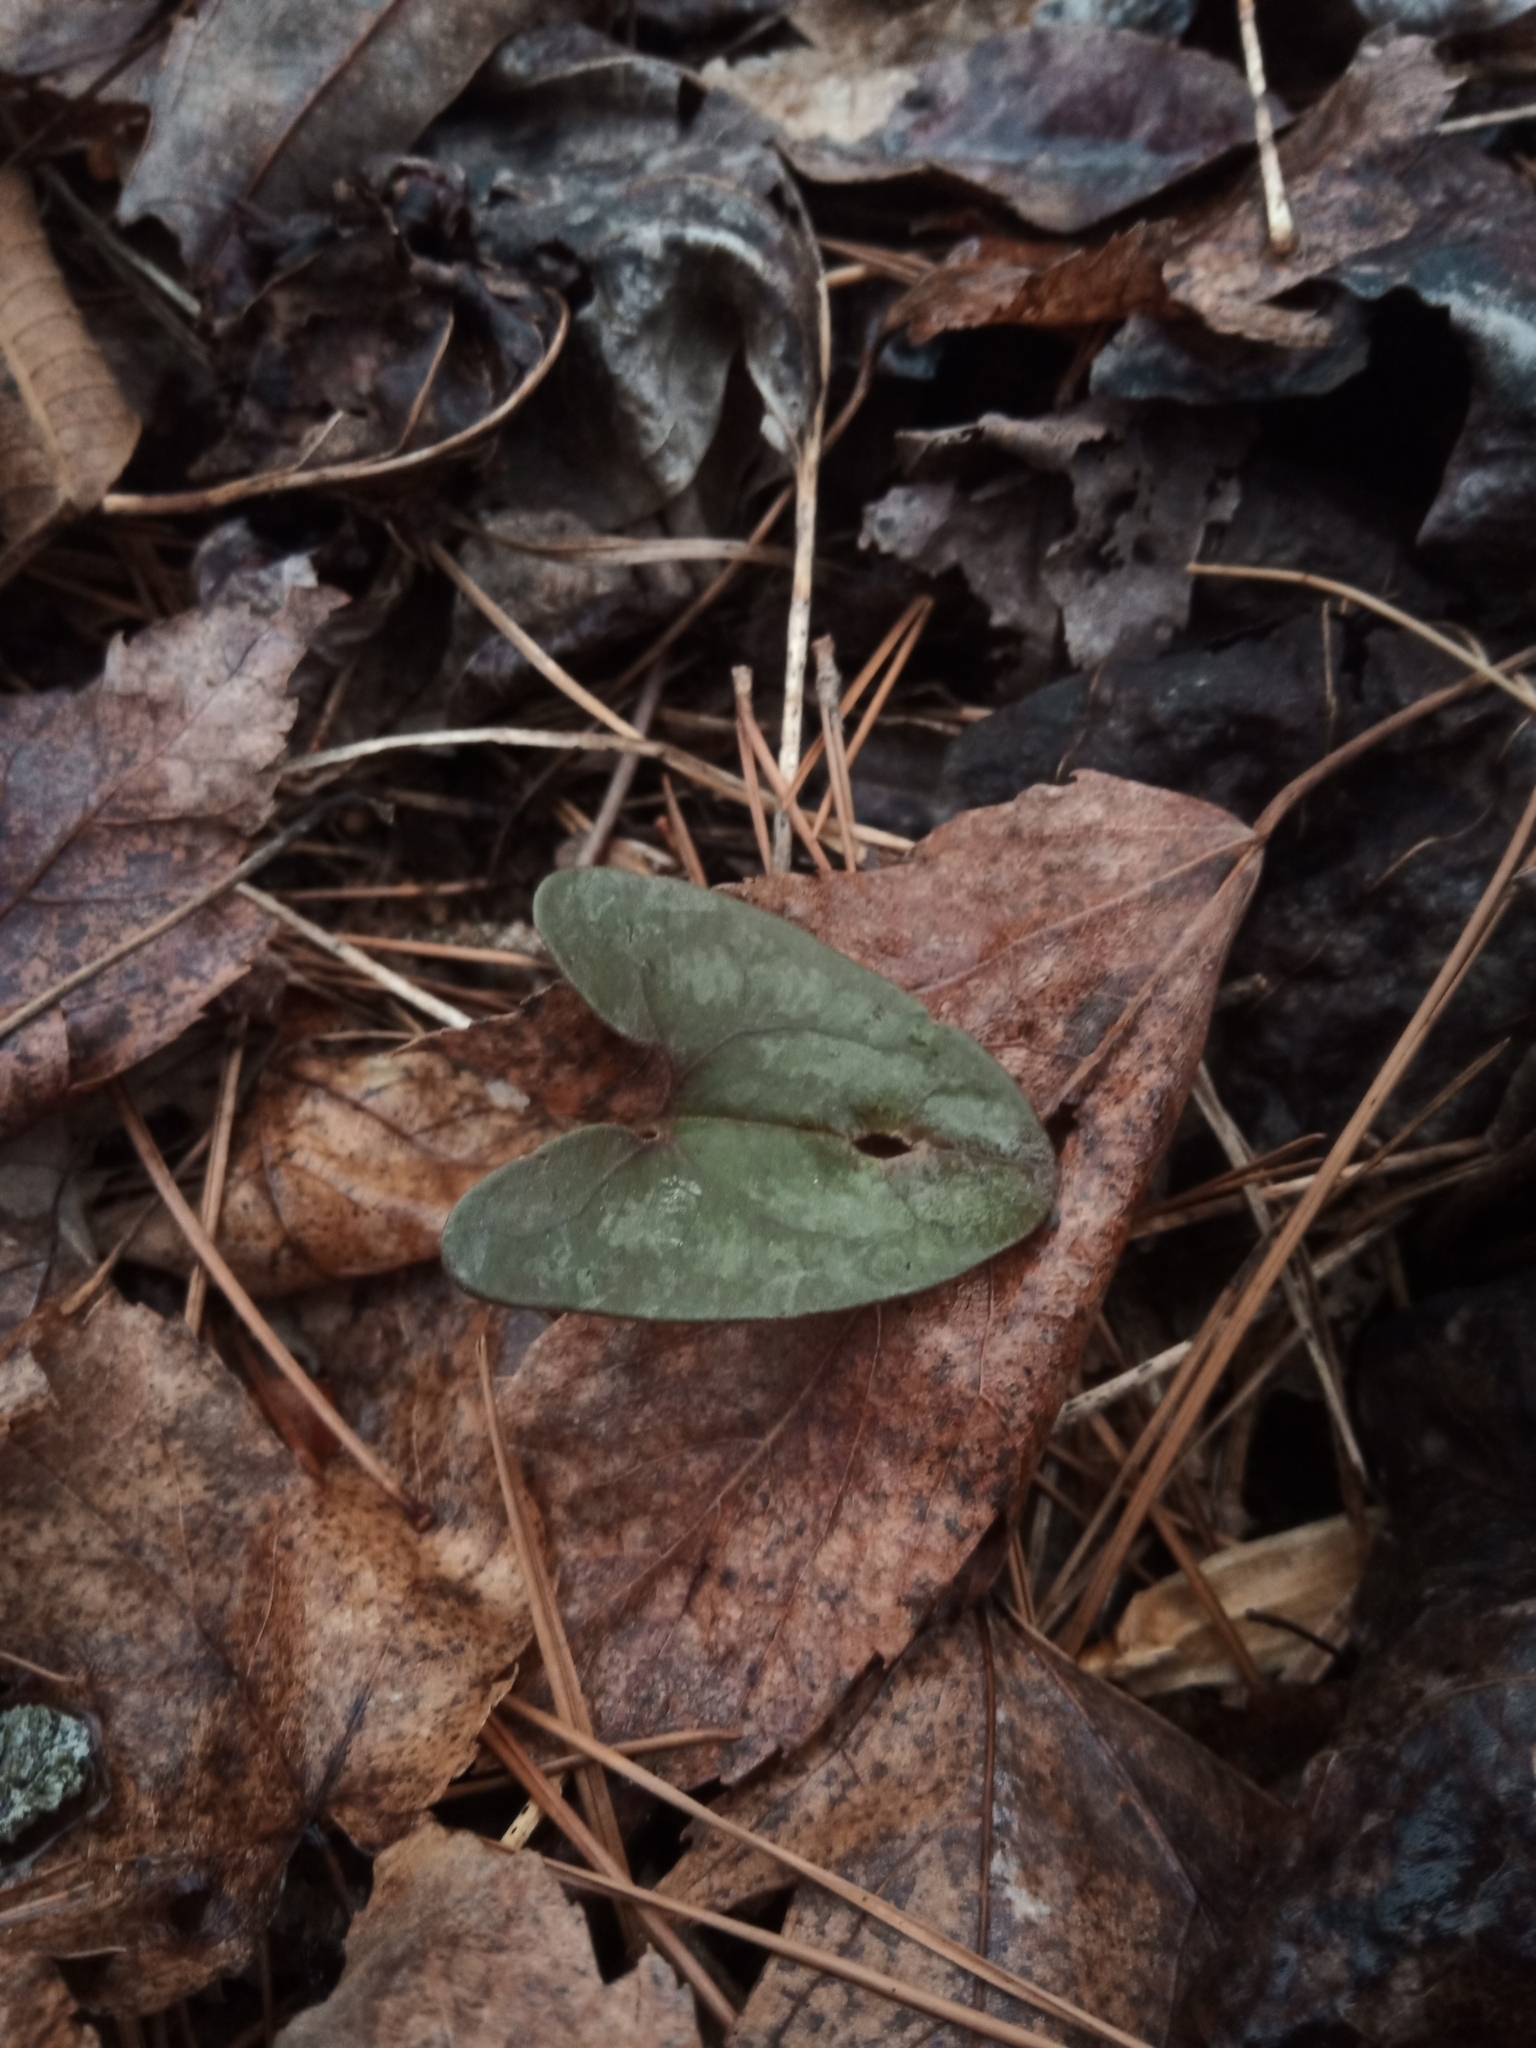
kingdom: Plantae
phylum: Tracheophyta
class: Magnoliopsida
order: Piperales
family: Aristolochiaceae
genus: Hexastylis
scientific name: Hexastylis arifolia
